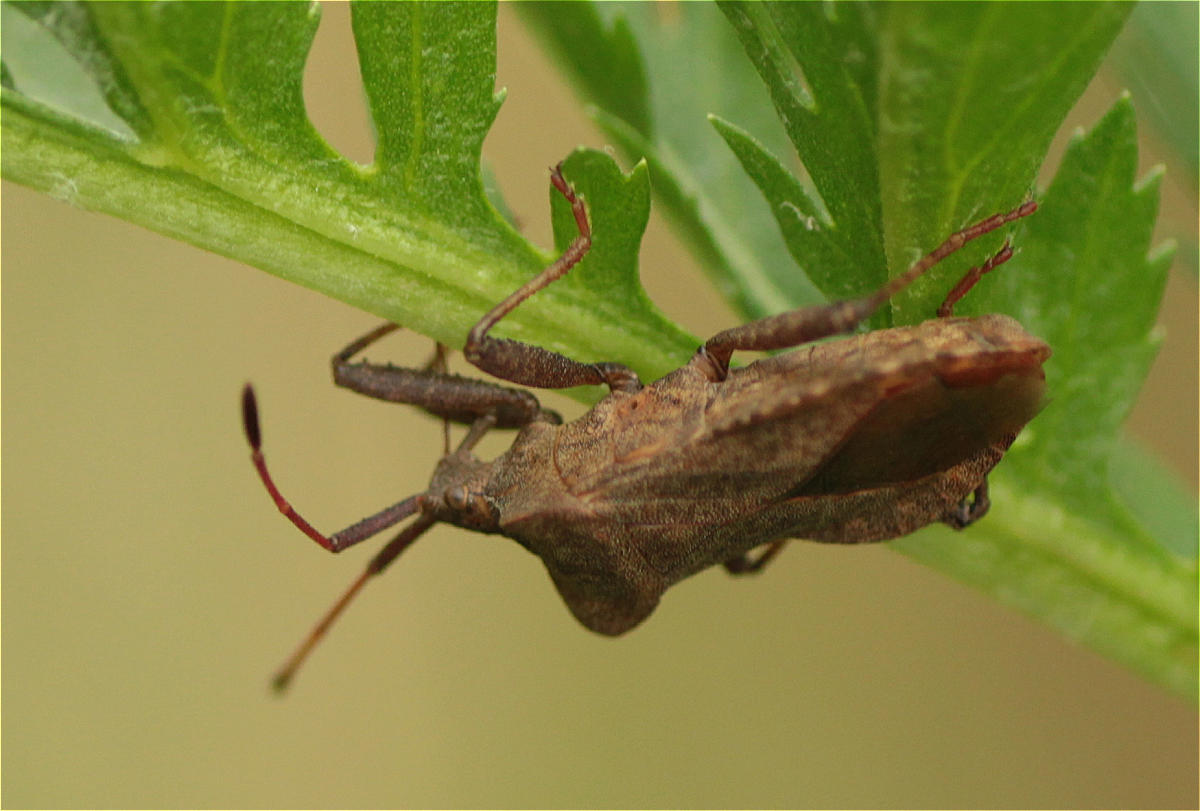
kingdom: Animalia
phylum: Arthropoda
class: Insecta
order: Hemiptera
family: Coreidae
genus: Coreus
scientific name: Coreus marginatus
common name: Dock bug
